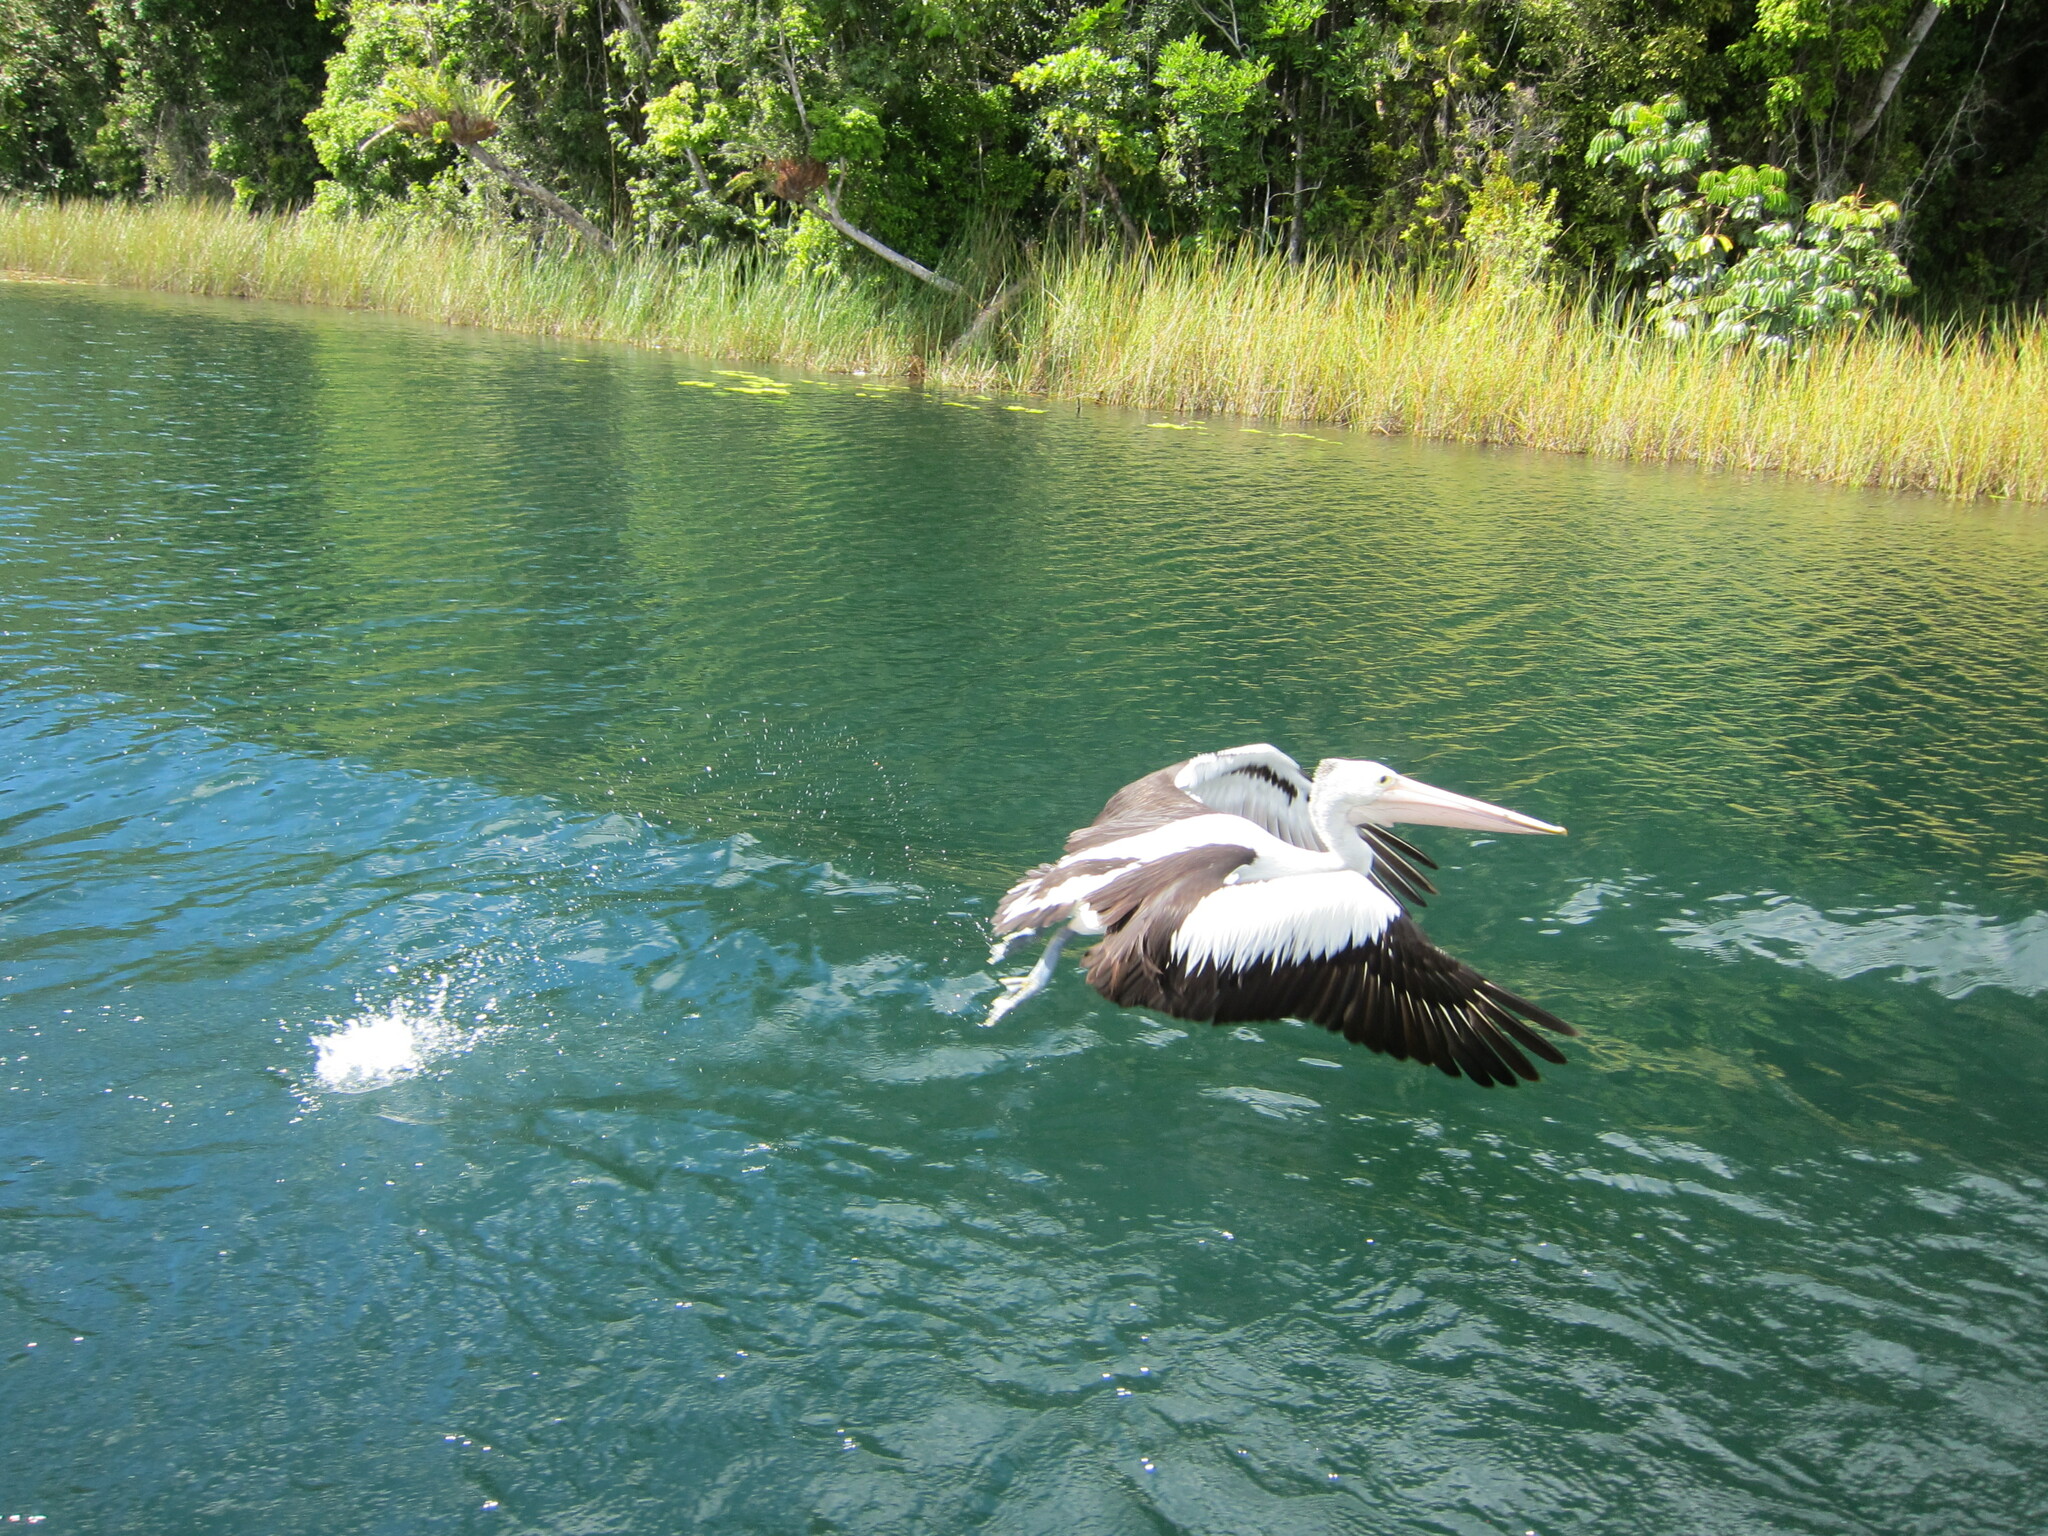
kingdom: Animalia
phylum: Chordata
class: Aves
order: Pelecaniformes
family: Pelecanidae
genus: Pelecanus
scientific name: Pelecanus conspicillatus
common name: Australian pelican
